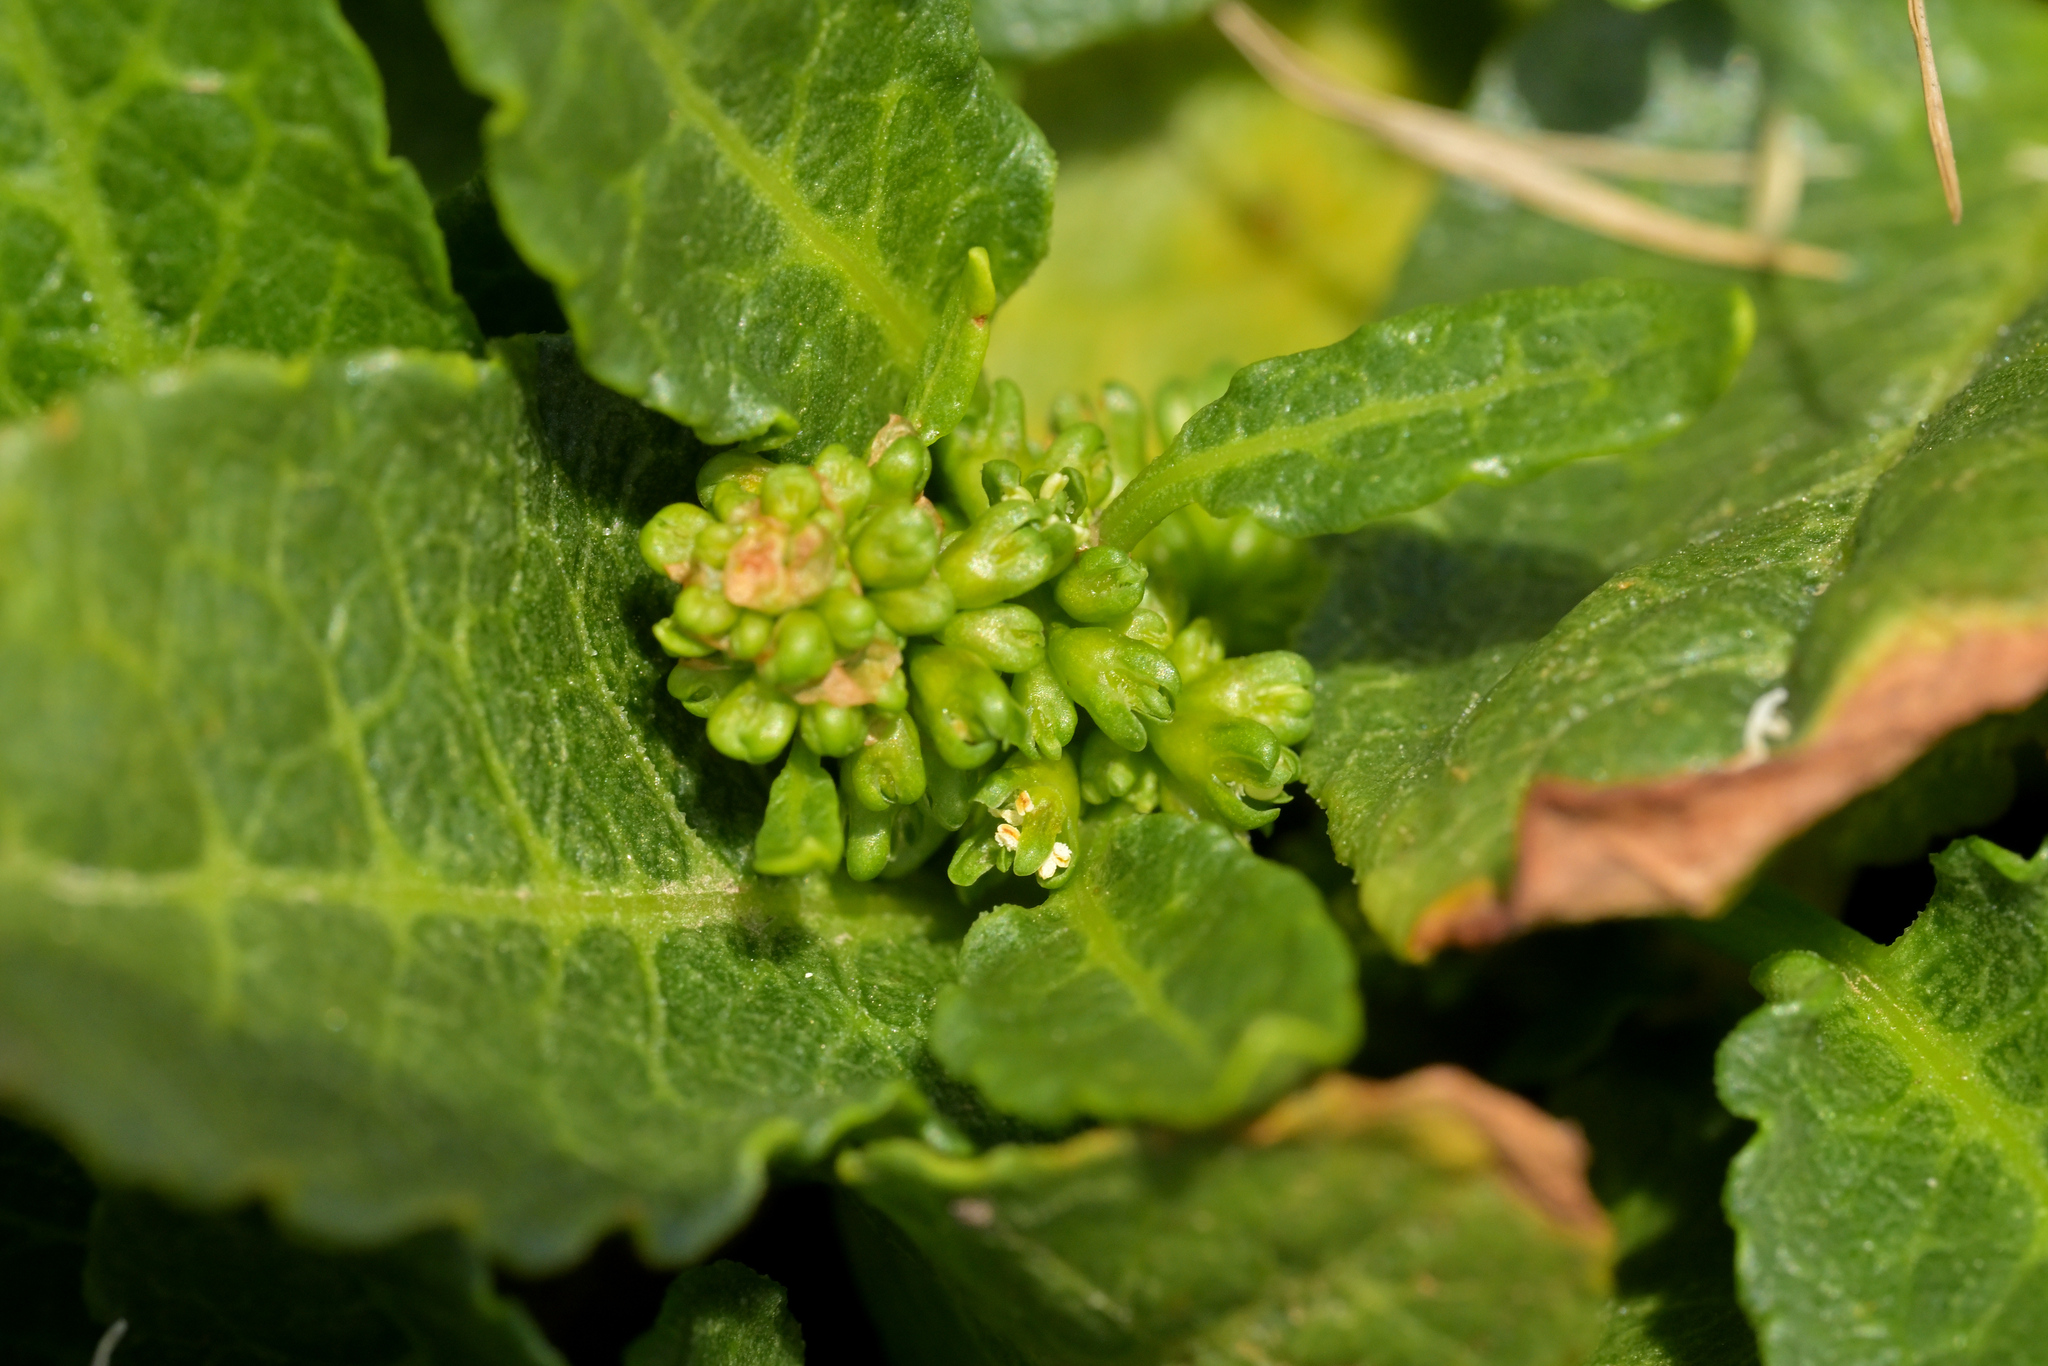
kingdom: Plantae
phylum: Tracheophyta
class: Magnoliopsida
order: Caryophyllales
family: Polygonaceae
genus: Rumex
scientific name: Rumex neglectus
